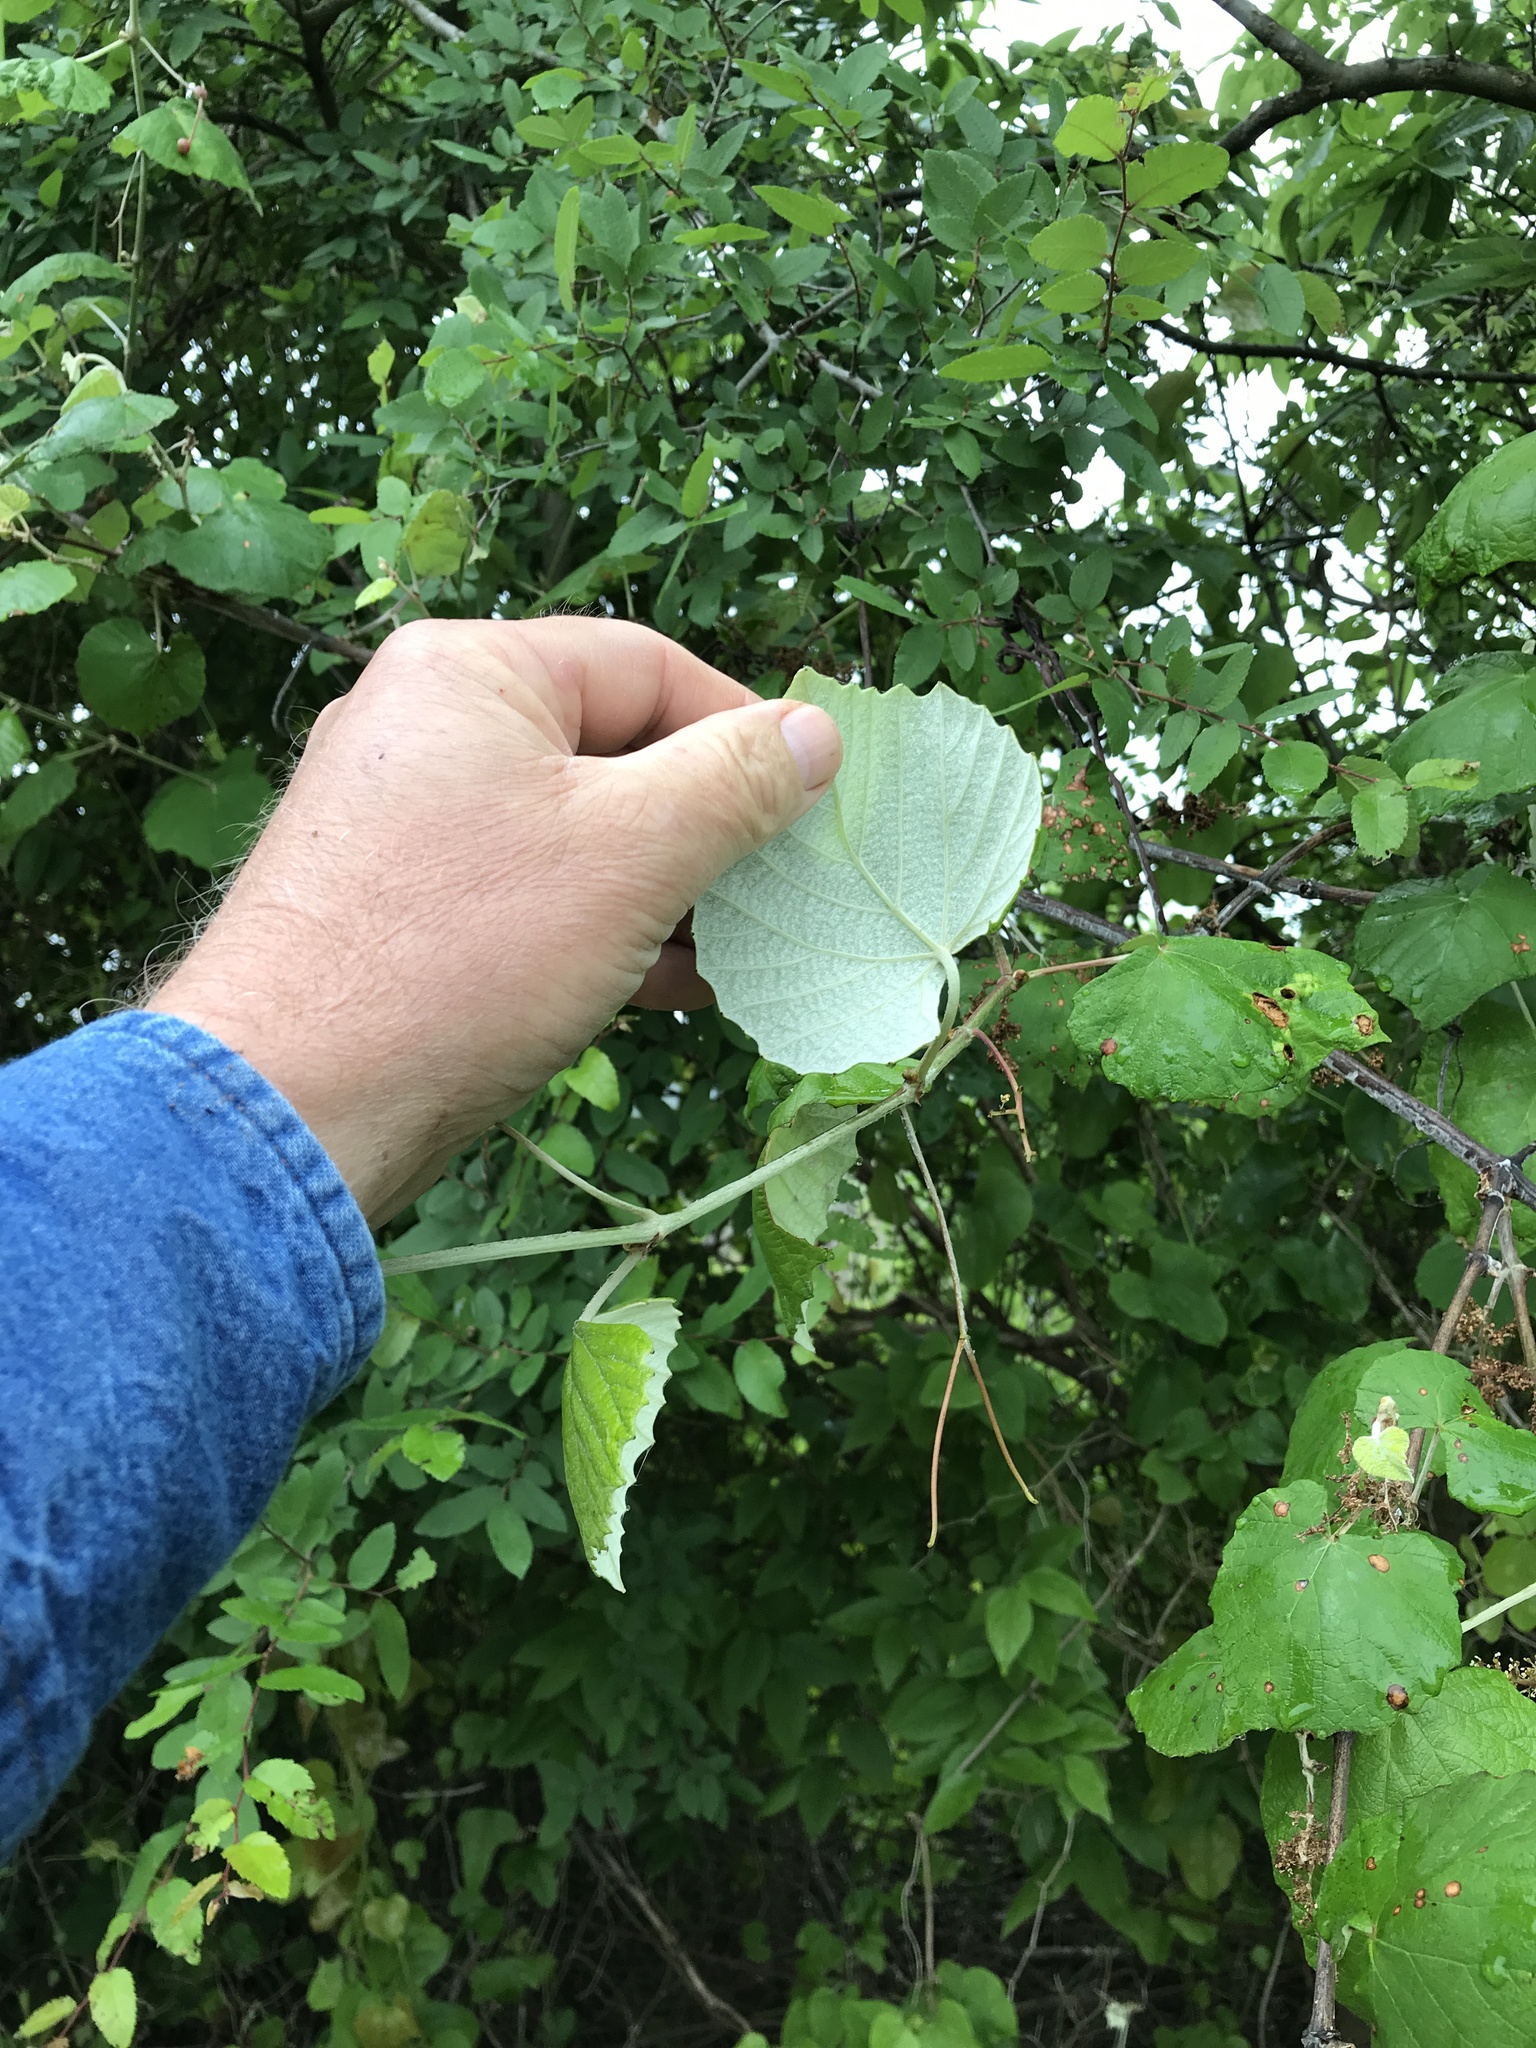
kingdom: Plantae
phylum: Tracheophyta
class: Magnoliopsida
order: Vitales
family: Vitaceae
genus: Vitis
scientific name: Vitis mustangensis
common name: Mustang grape
